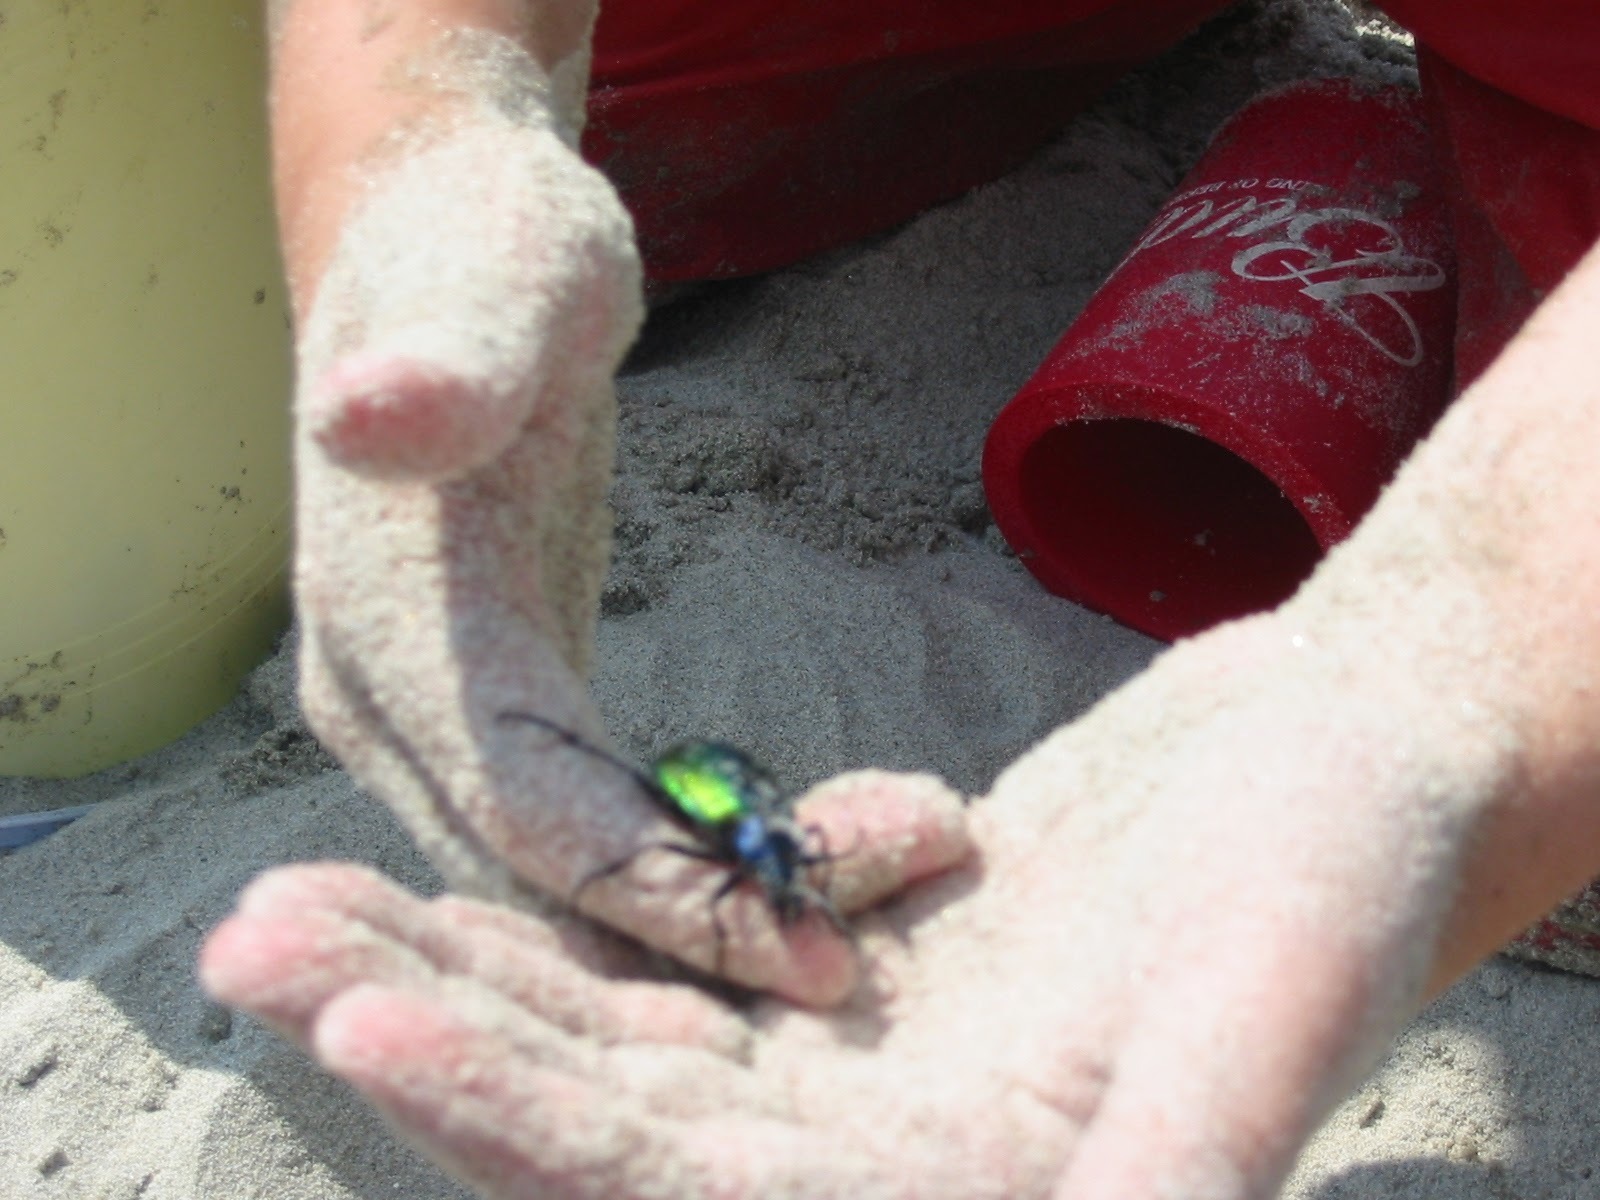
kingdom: Animalia
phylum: Arthropoda
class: Insecta
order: Coleoptera
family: Carabidae
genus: Calosoma
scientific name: Calosoma sycophanta
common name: Forest caterpillar hunter
